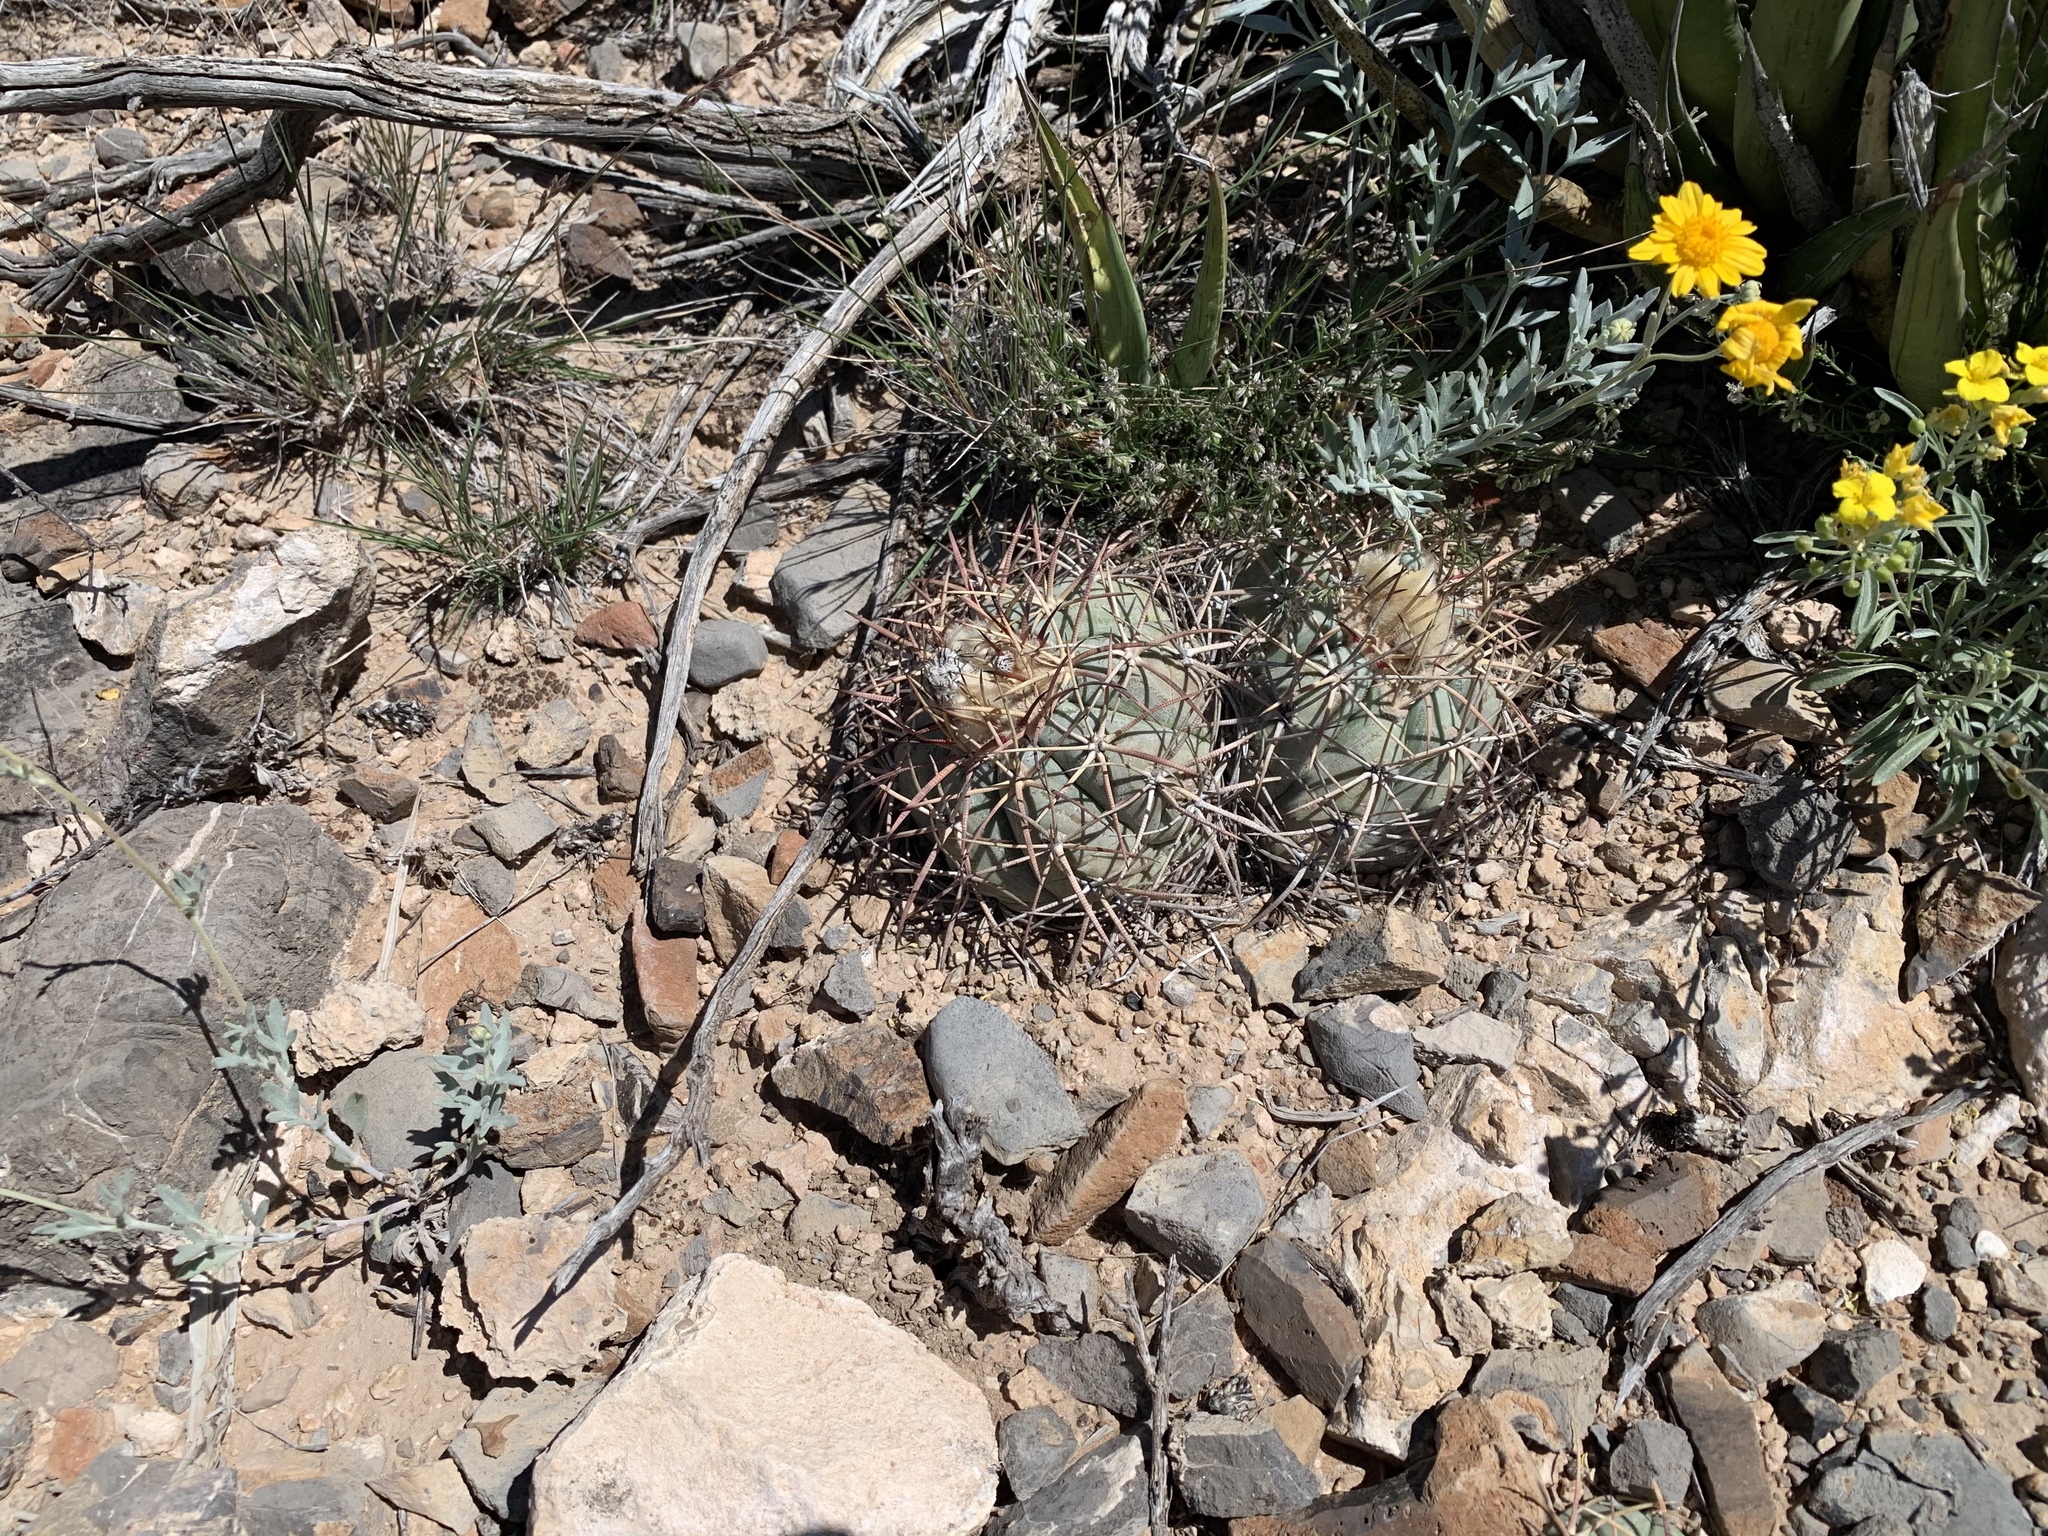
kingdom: Plantae
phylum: Tracheophyta
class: Magnoliopsida
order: Caryophyllales
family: Cactaceae
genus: Echinocactus
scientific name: Echinocactus horizonthalonius
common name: Devilshead
